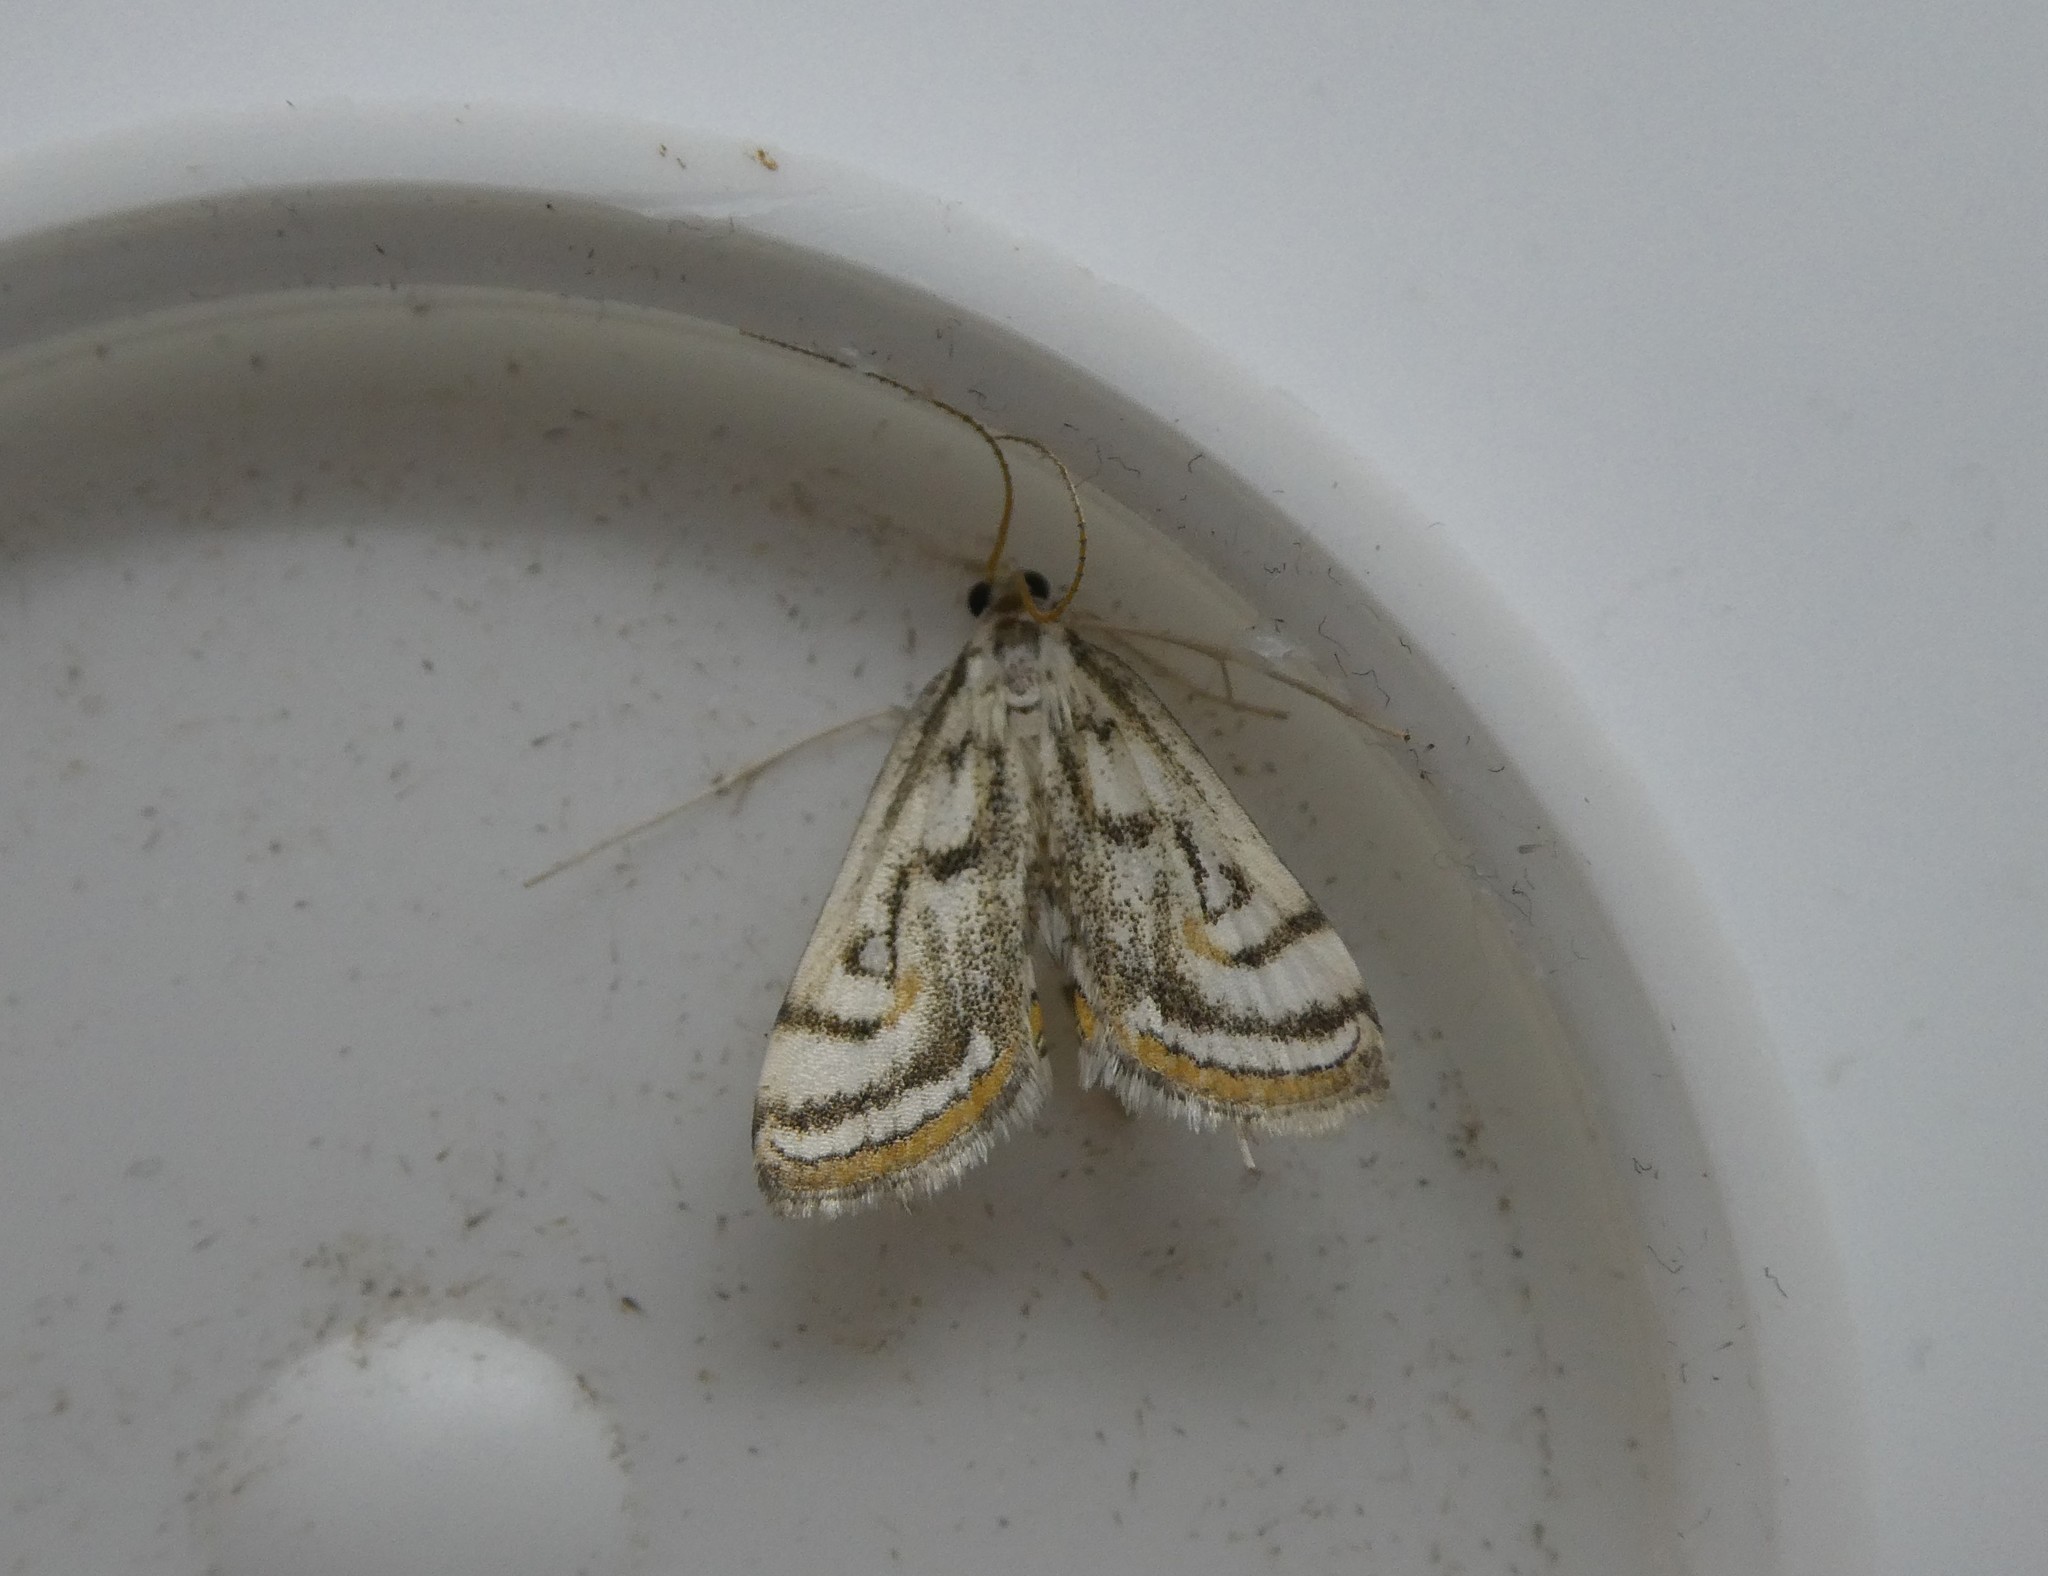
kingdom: Animalia
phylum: Arthropoda
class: Insecta
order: Lepidoptera
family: Crambidae
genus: Parapoynx
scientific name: Parapoynx badiusalis
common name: Chestnut-marked pondweed moth
